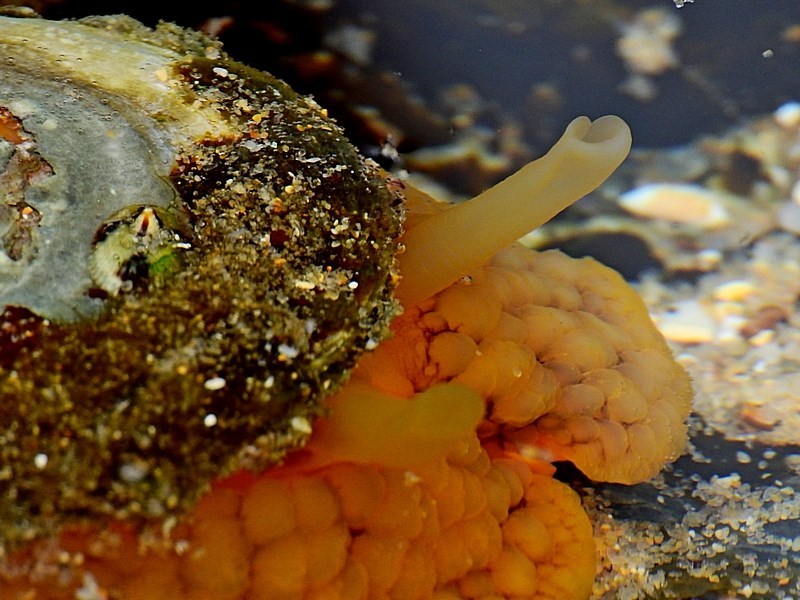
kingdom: Animalia
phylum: Mollusca
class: Gastropoda
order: Umbraculida
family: Umbraculidae
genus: Umbraculum
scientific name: Umbraculum umbraculum
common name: Atlantic umbrella slug
